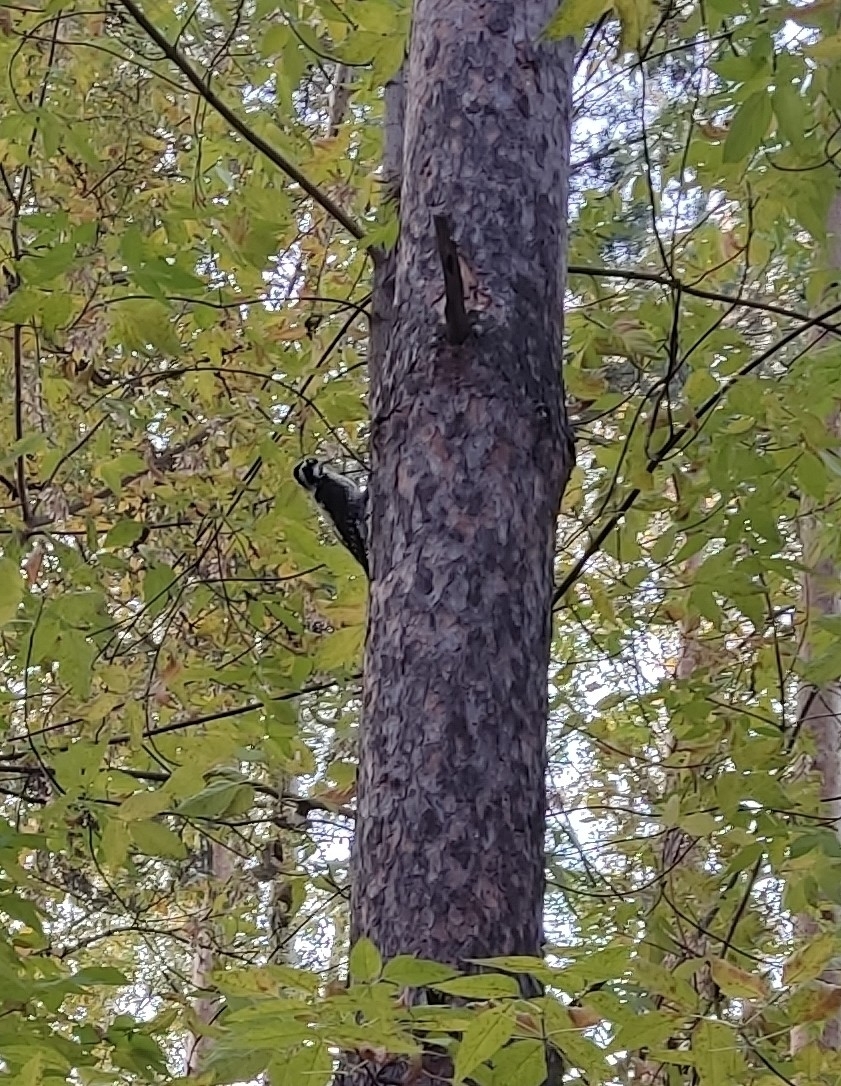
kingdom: Animalia
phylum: Chordata
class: Aves
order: Piciformes
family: Picidae
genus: Picoides
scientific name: Picoides tridactylus
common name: Eurasian three-toed woodpecker
